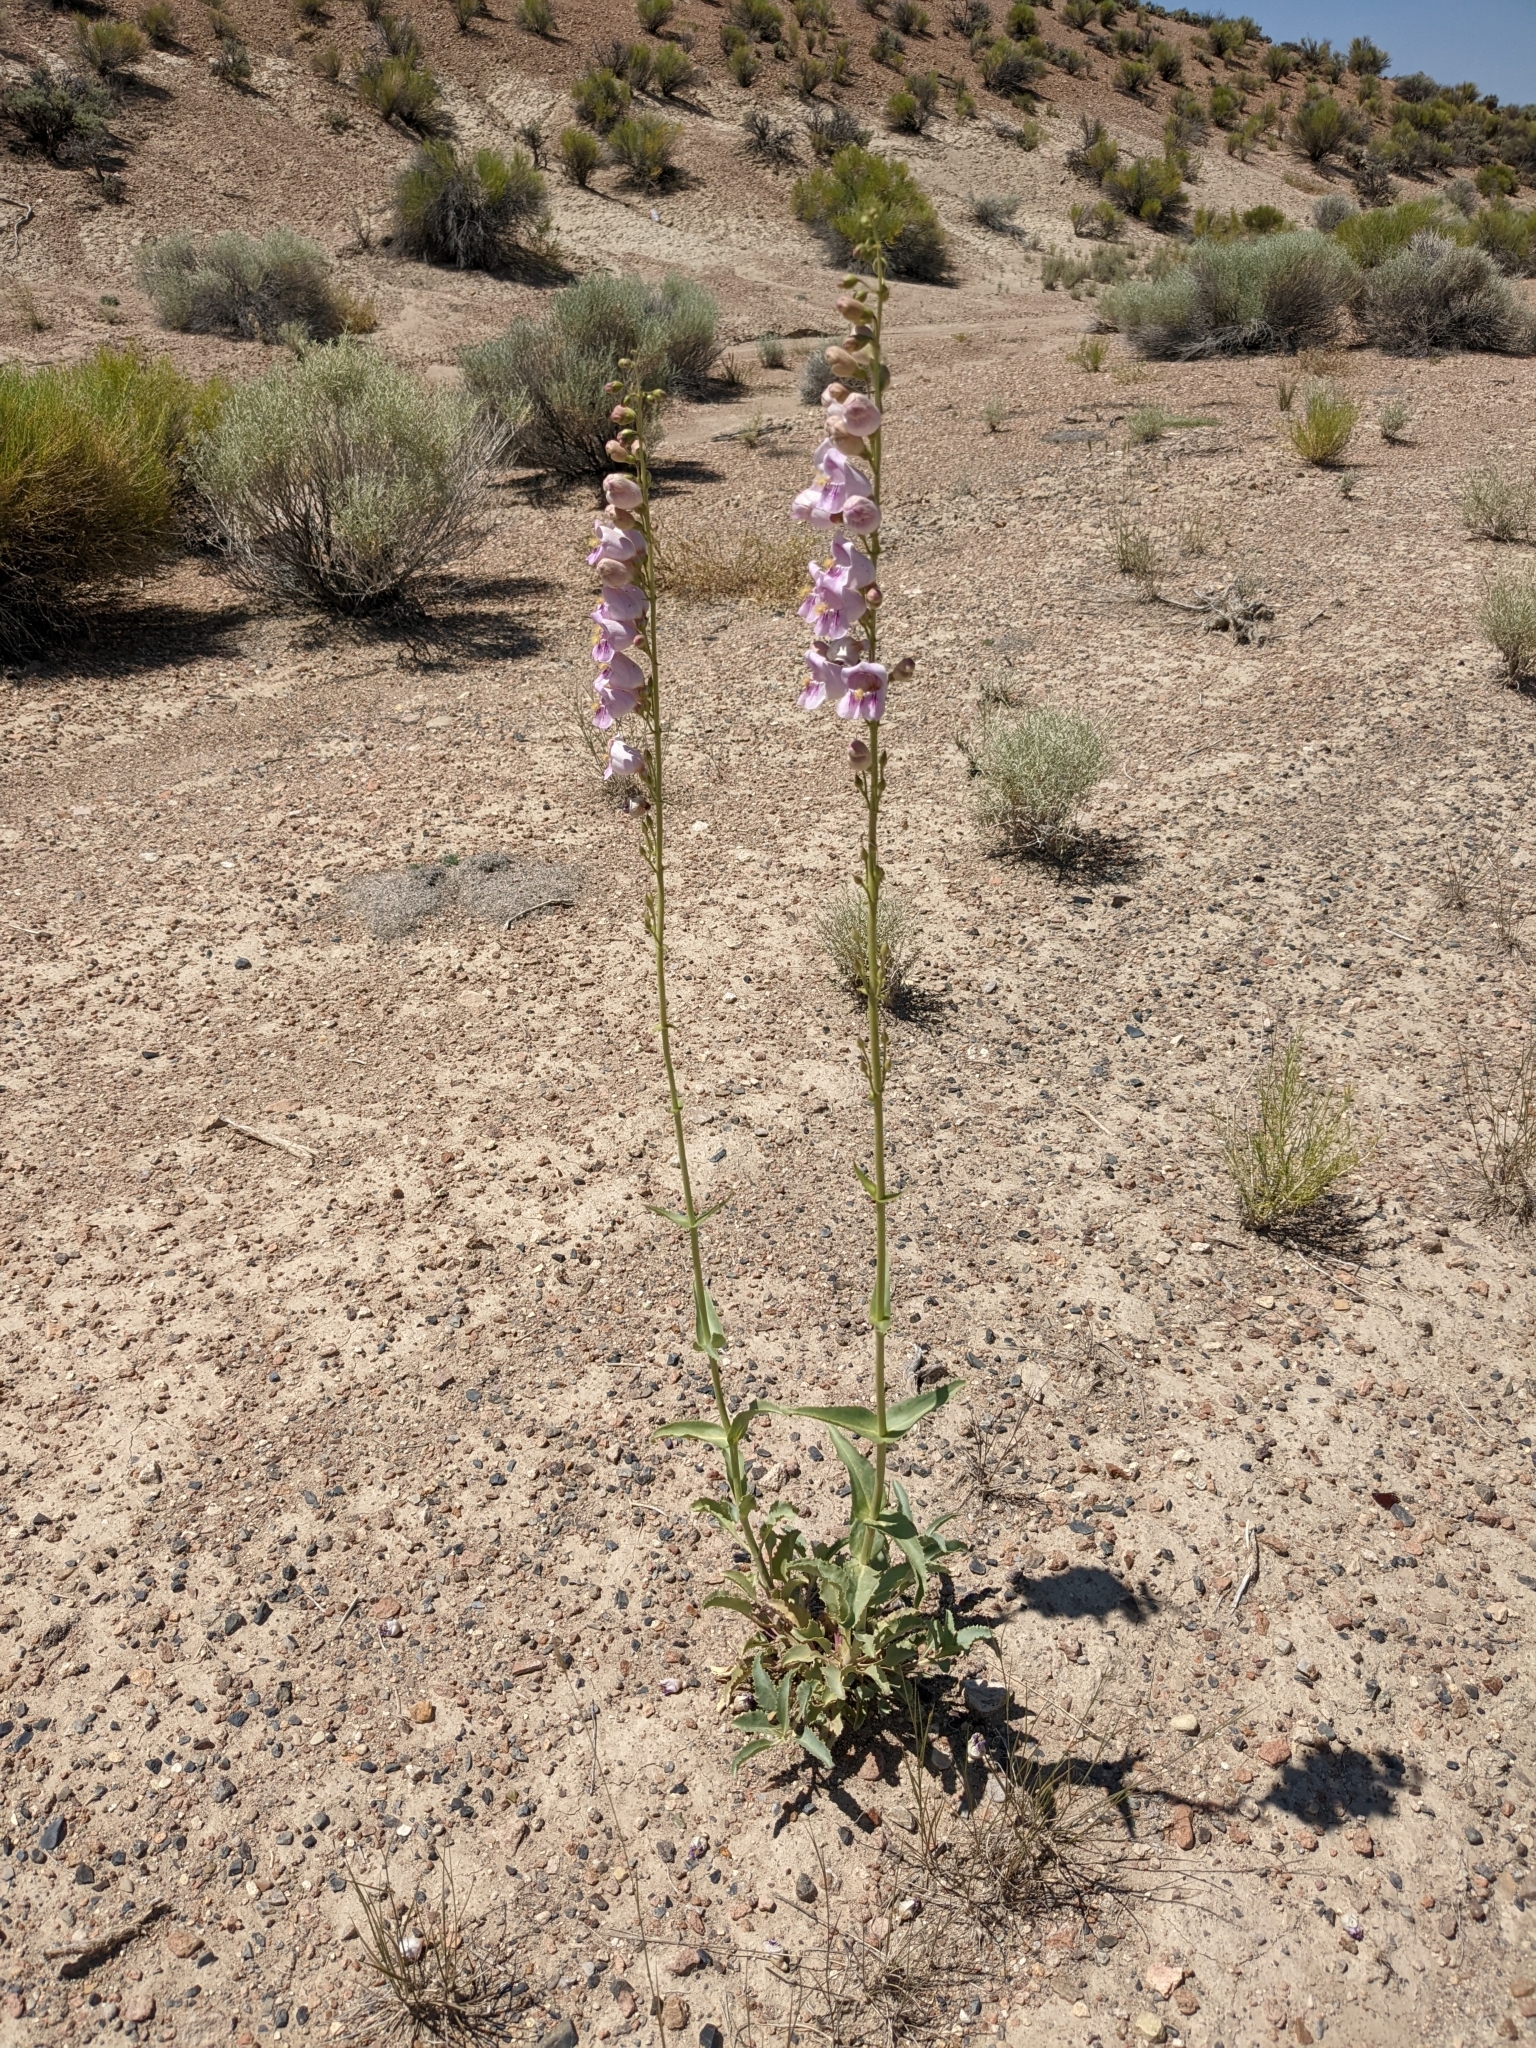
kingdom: Plantae
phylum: Tracheophyta
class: Magnoliopsida
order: Lamiales
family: Plantaginaceae
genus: Penstemon
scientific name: Penstemon palmeri
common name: Palmer penstemon
